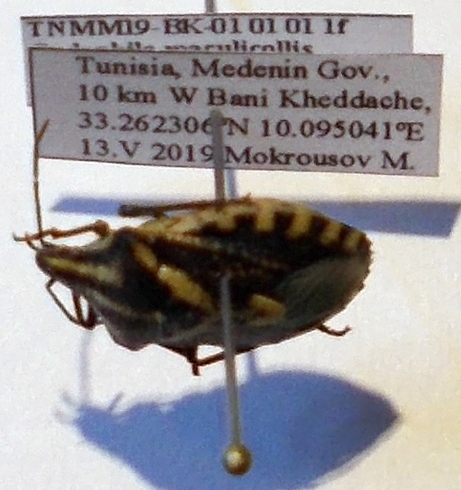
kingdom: Animalia
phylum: Arthropoda
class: Insecta
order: Hemiptera
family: Pentatomidae
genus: Codophila
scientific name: Codophila
